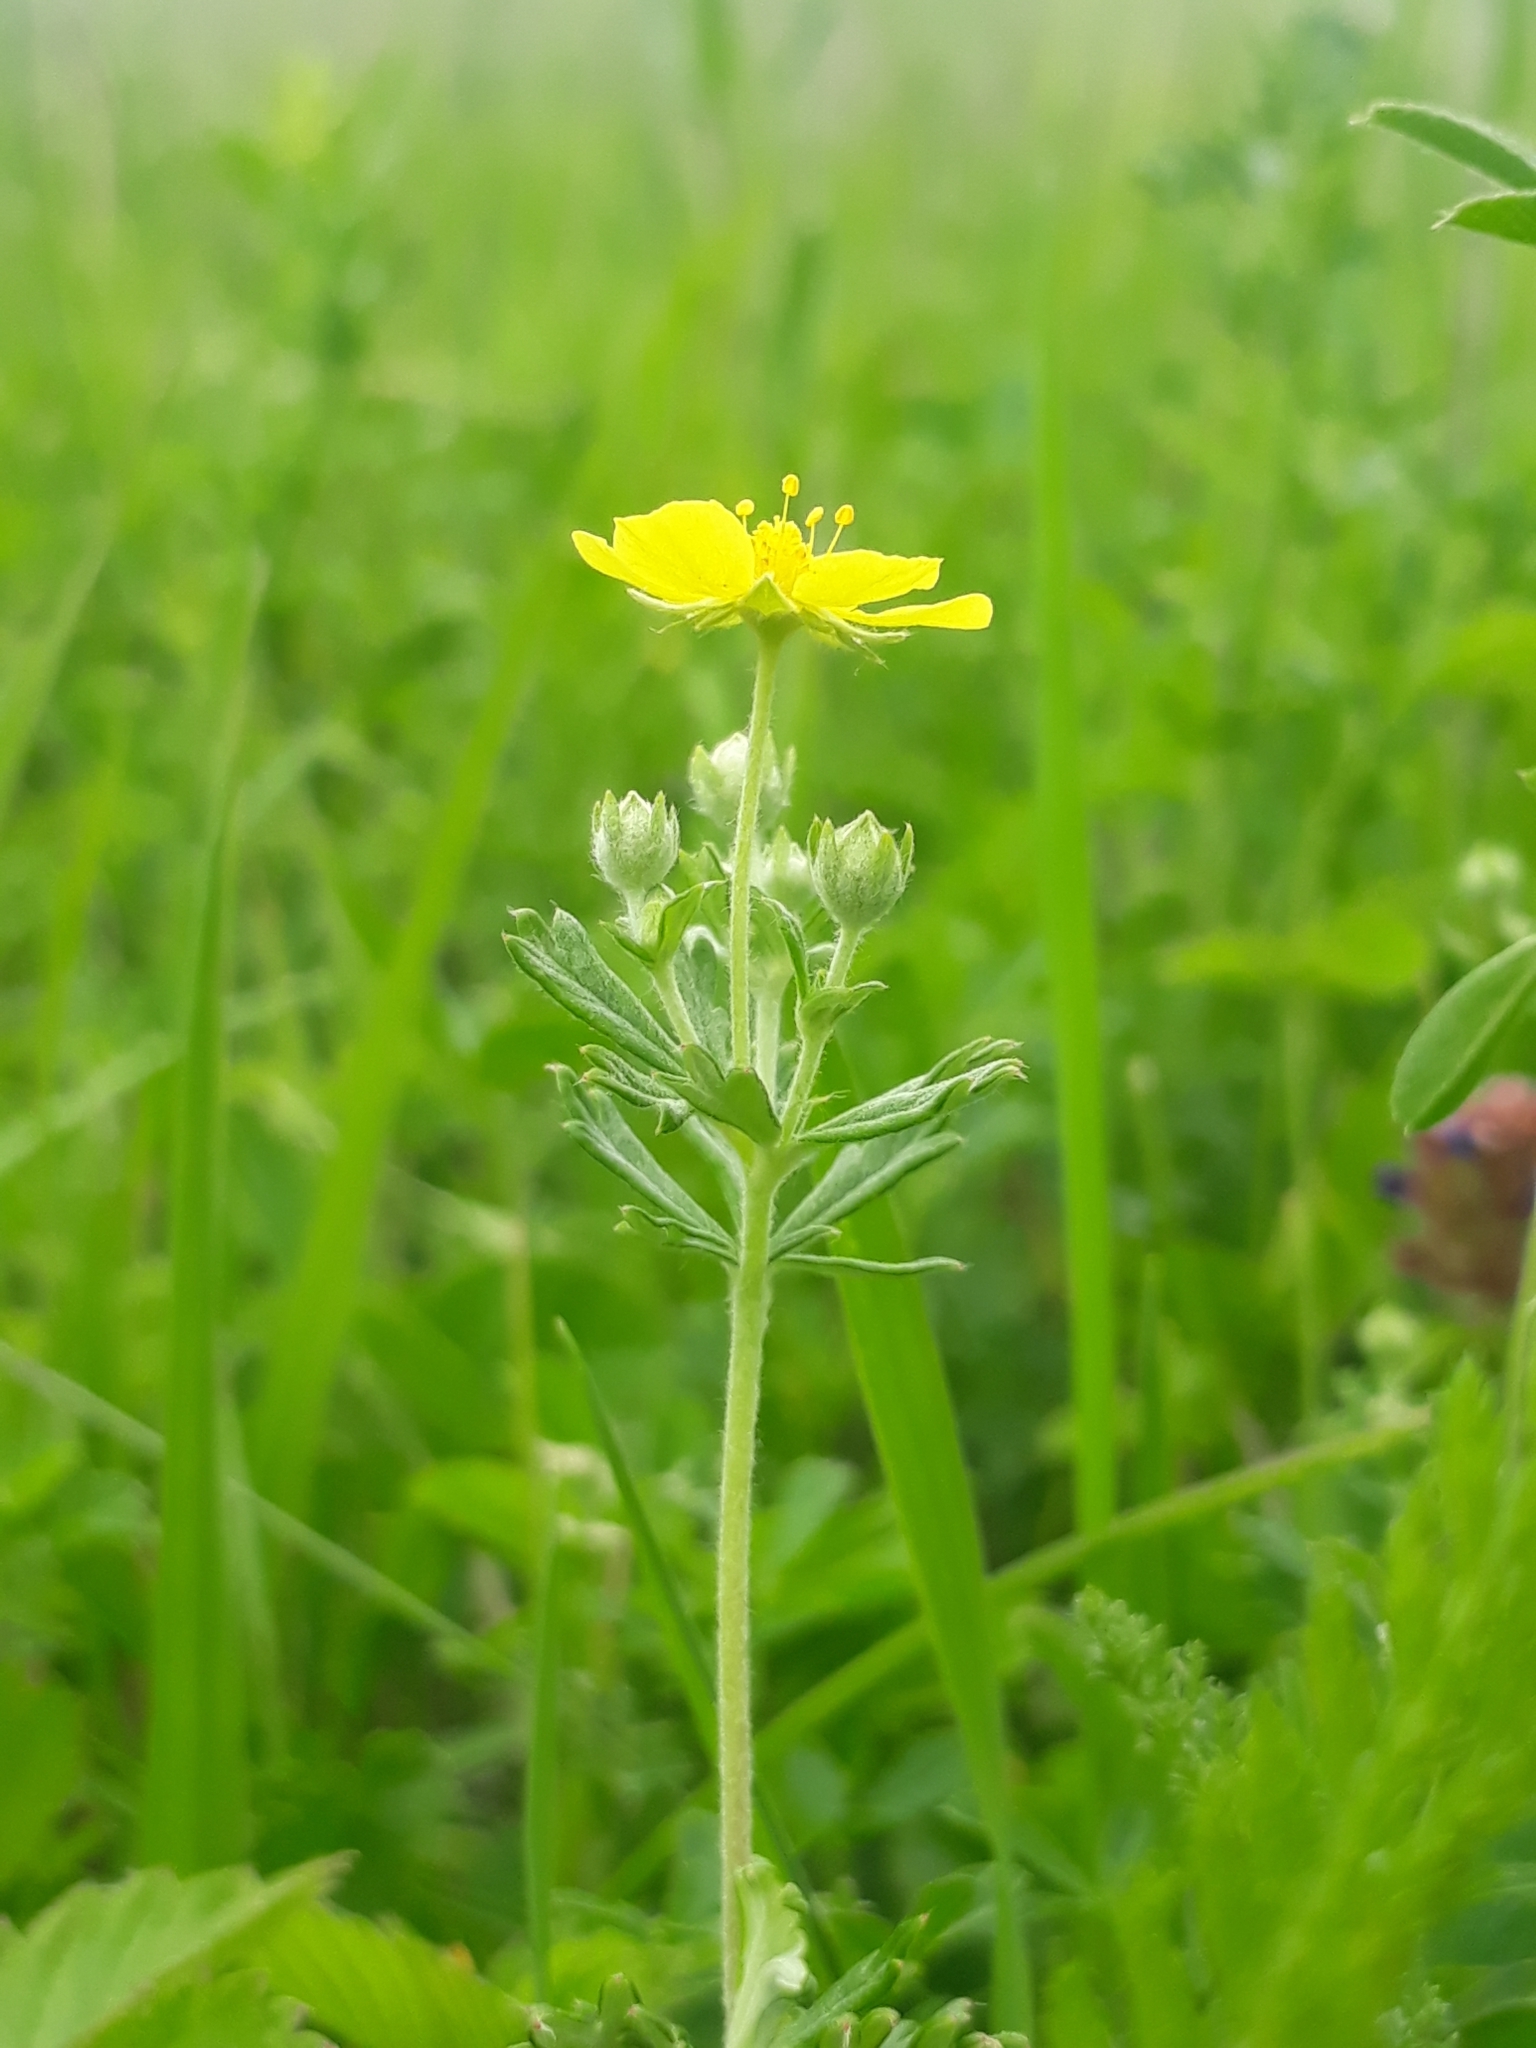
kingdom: Plantae
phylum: Tracheophyta
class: Magnoliopsida
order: Rosales
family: Rosaceae
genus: Potentilla
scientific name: Potentilla argentea
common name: Hoary cinquefoil
